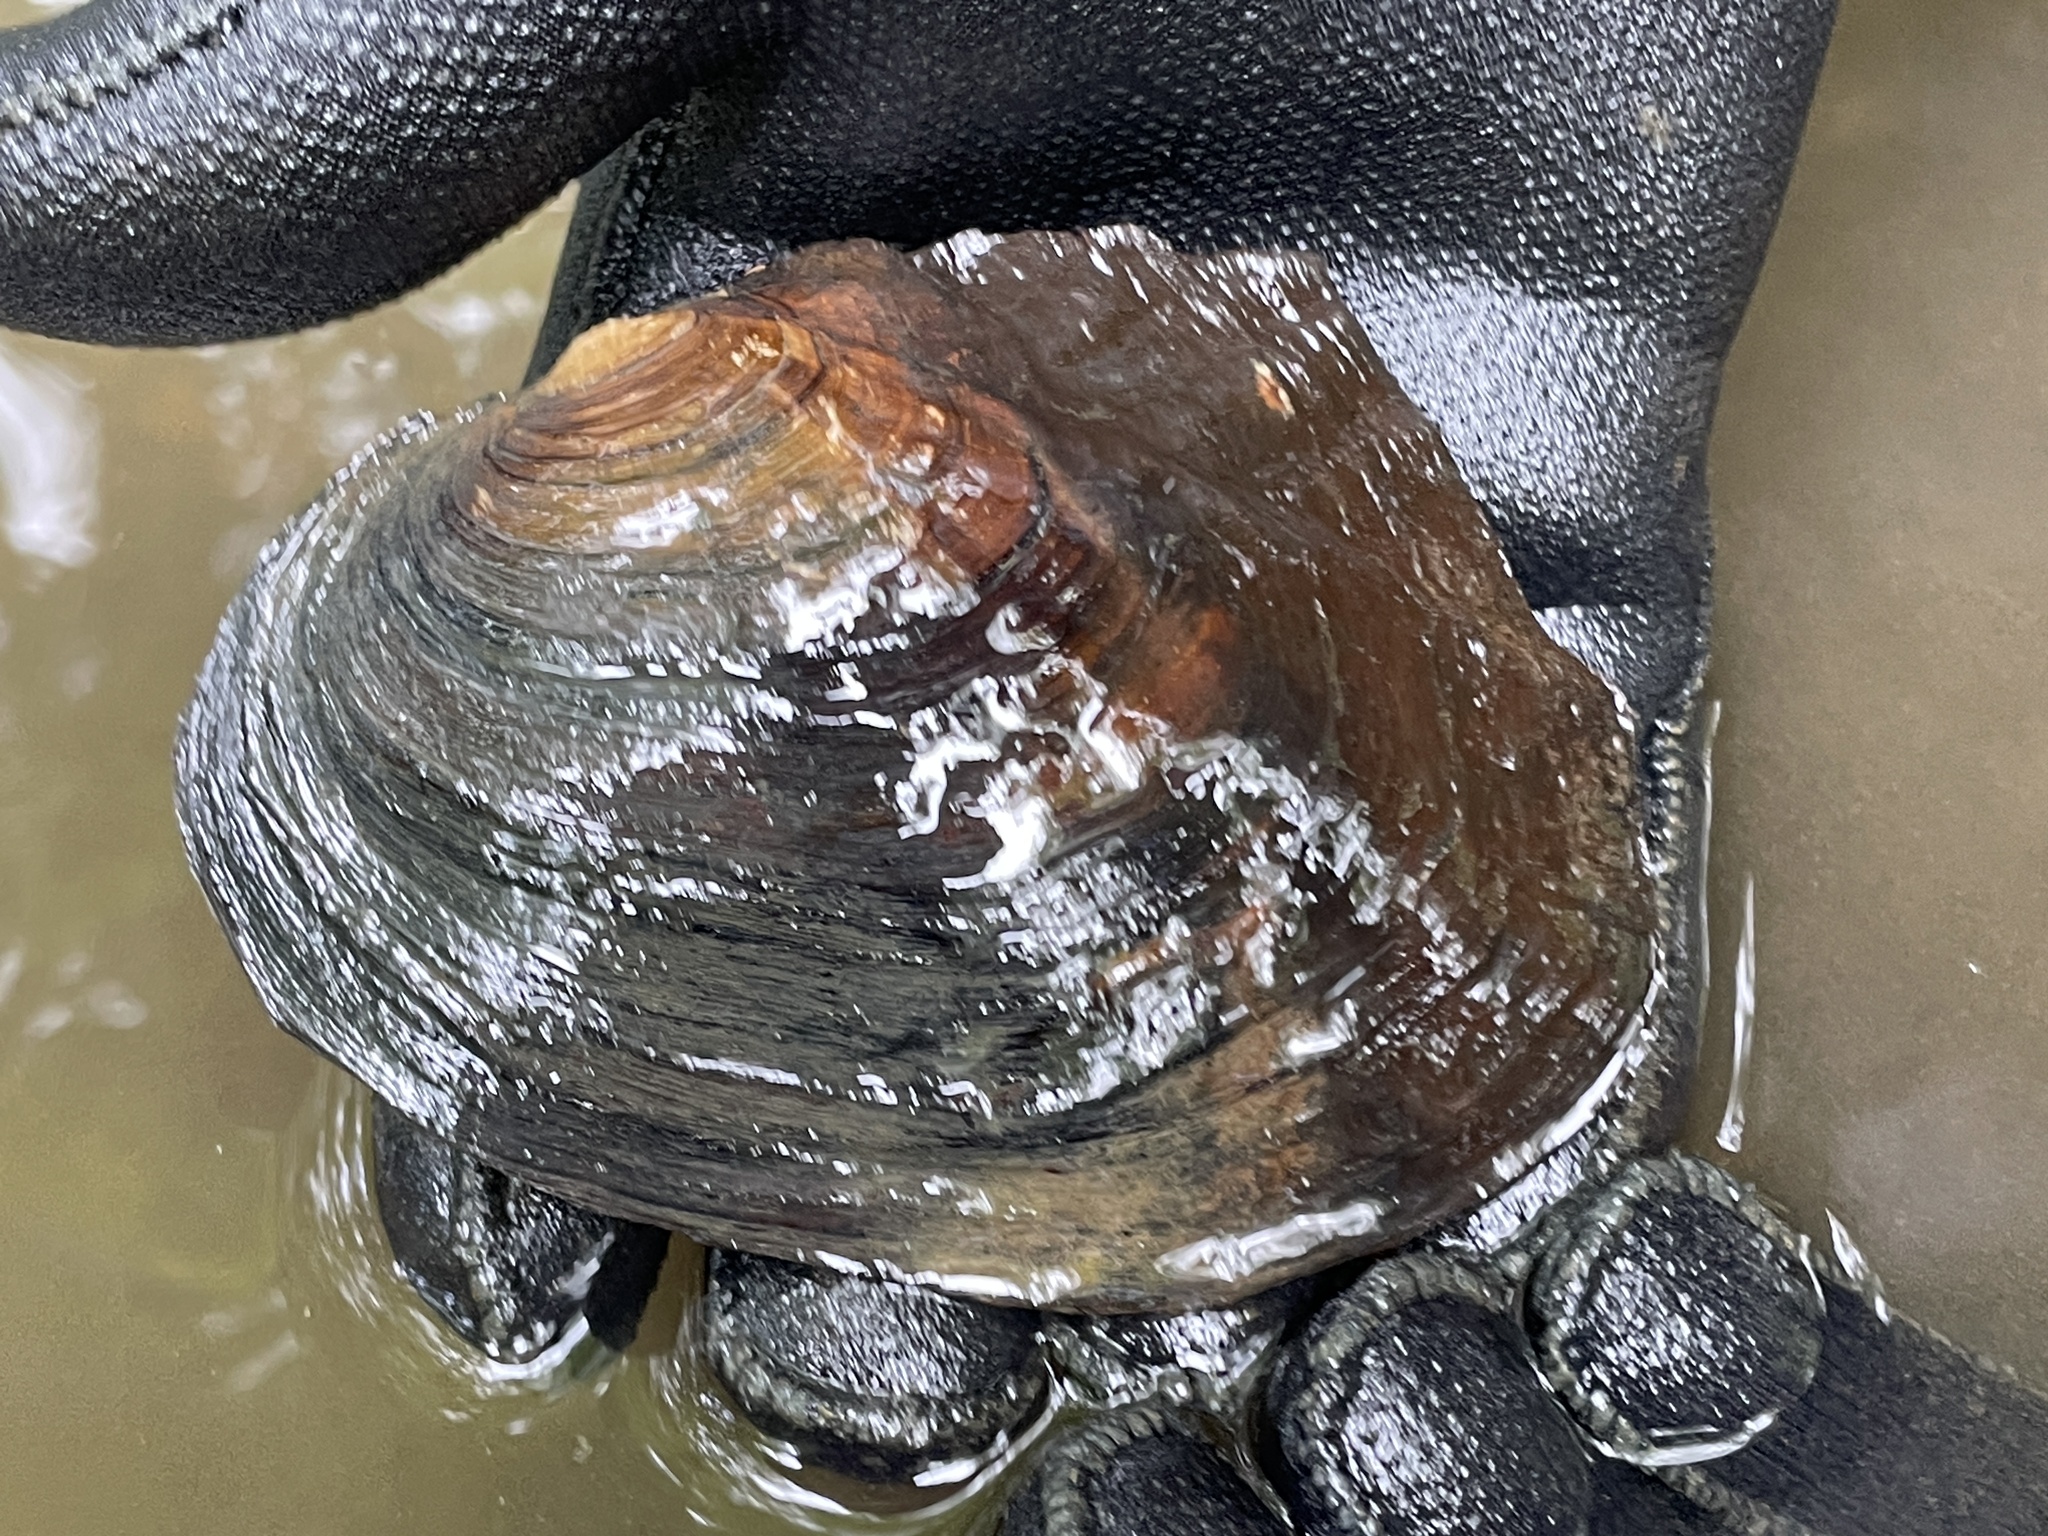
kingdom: Animalia
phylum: Mollusca
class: Bivalvia
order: Unionida
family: Unionidae
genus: Lasmigona
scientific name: Lasmigona complanata
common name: White heelsplitter
